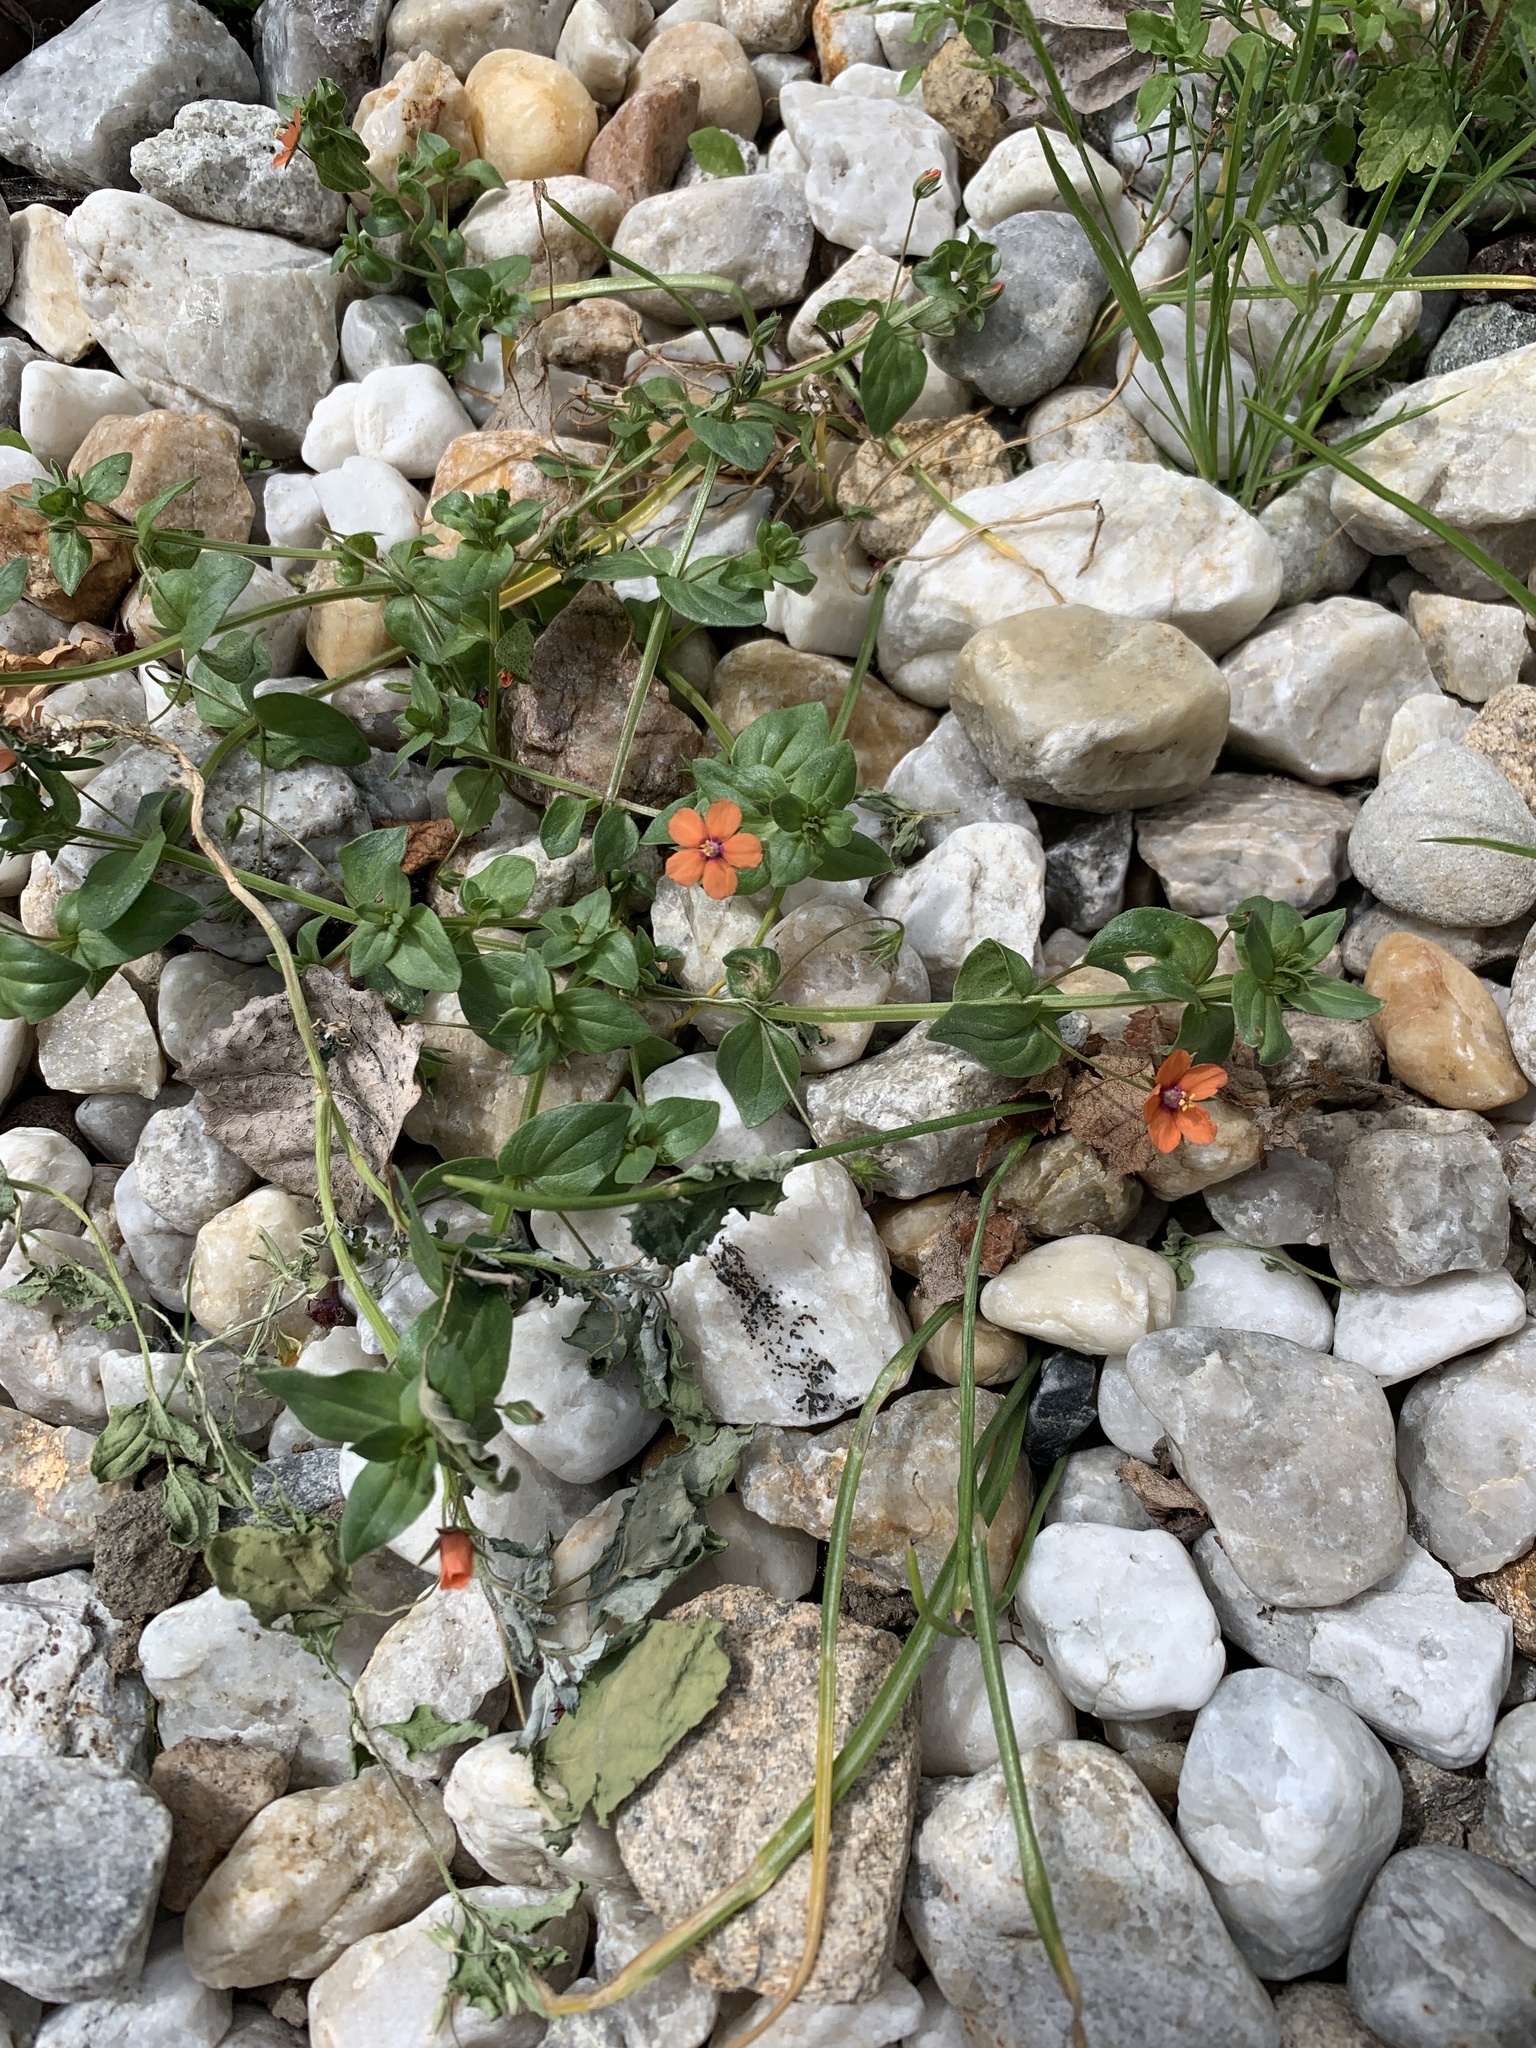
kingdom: Plantae
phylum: Tracheophyta
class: Magnoliopsida
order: Ericales
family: Primulaceae
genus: Lysimachia
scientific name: Lysimachia arvensis
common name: Scarlet pimpernel
